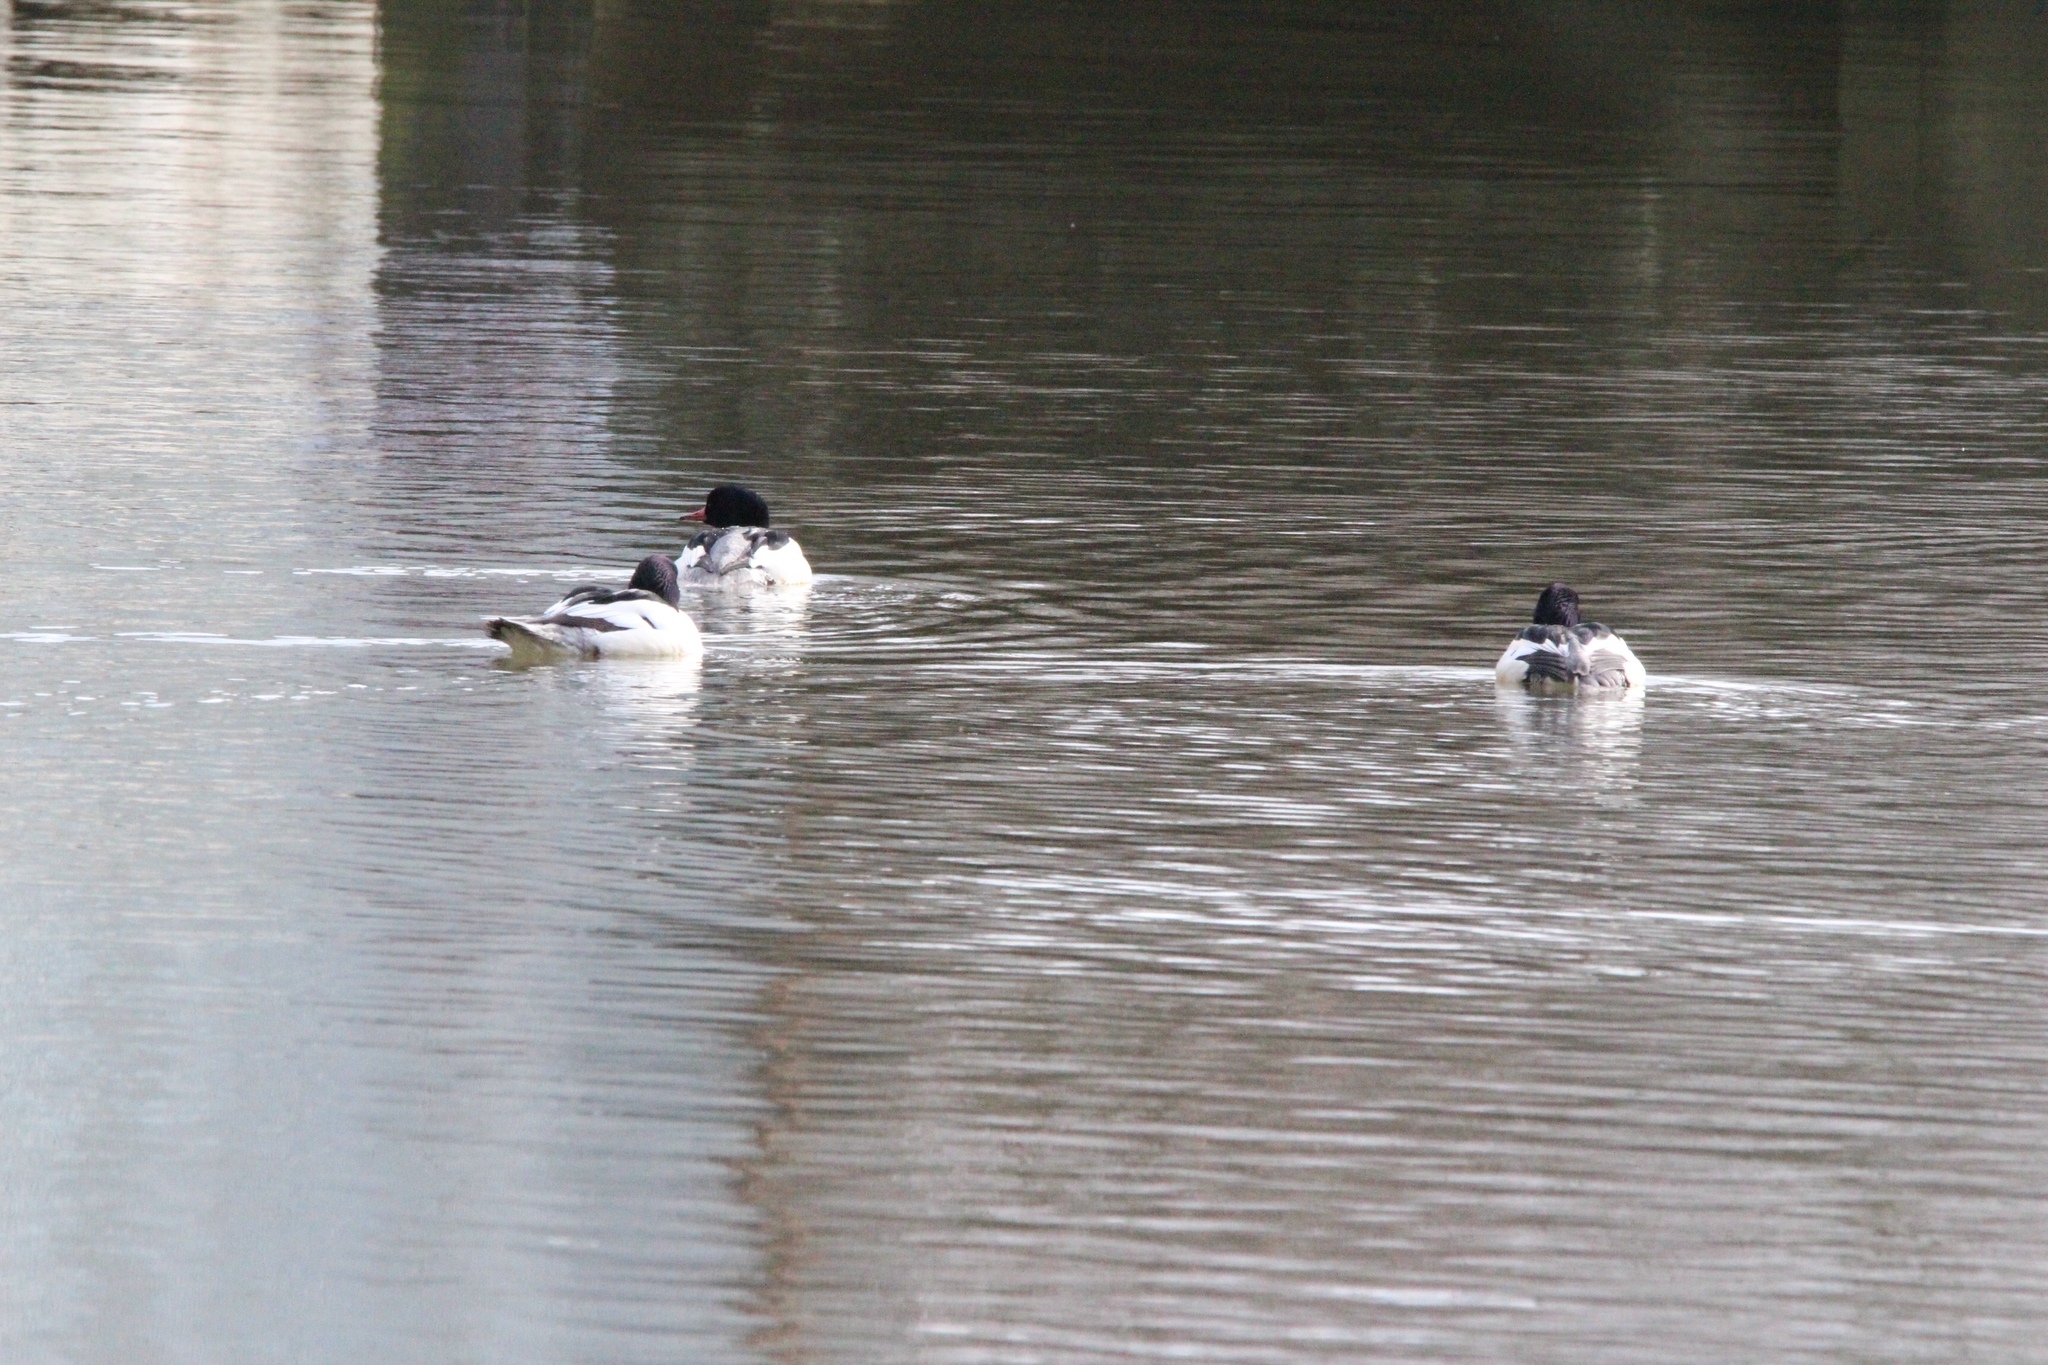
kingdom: Animalia
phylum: Chordata
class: Aves
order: Anseriformes
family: Anatidae
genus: Mergus
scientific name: Mergus merganser
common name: Common merganser
